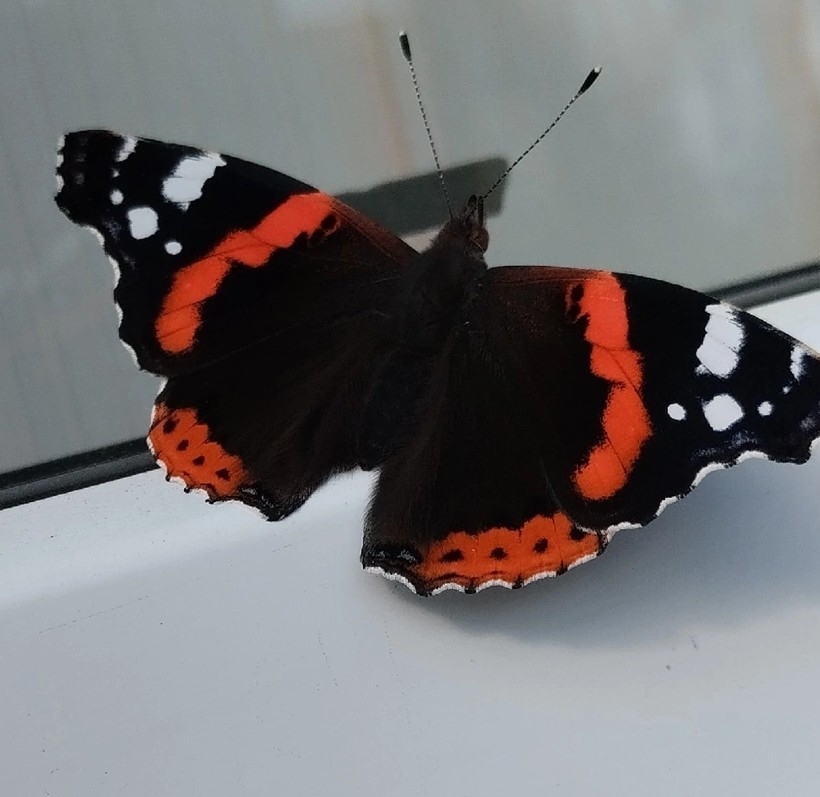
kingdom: Animalia
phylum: Arthropoda
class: Insecta
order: Lepidoptera
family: Nymphalidae
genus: Vanessa
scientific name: Vanessa atalanta
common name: Red admiral
